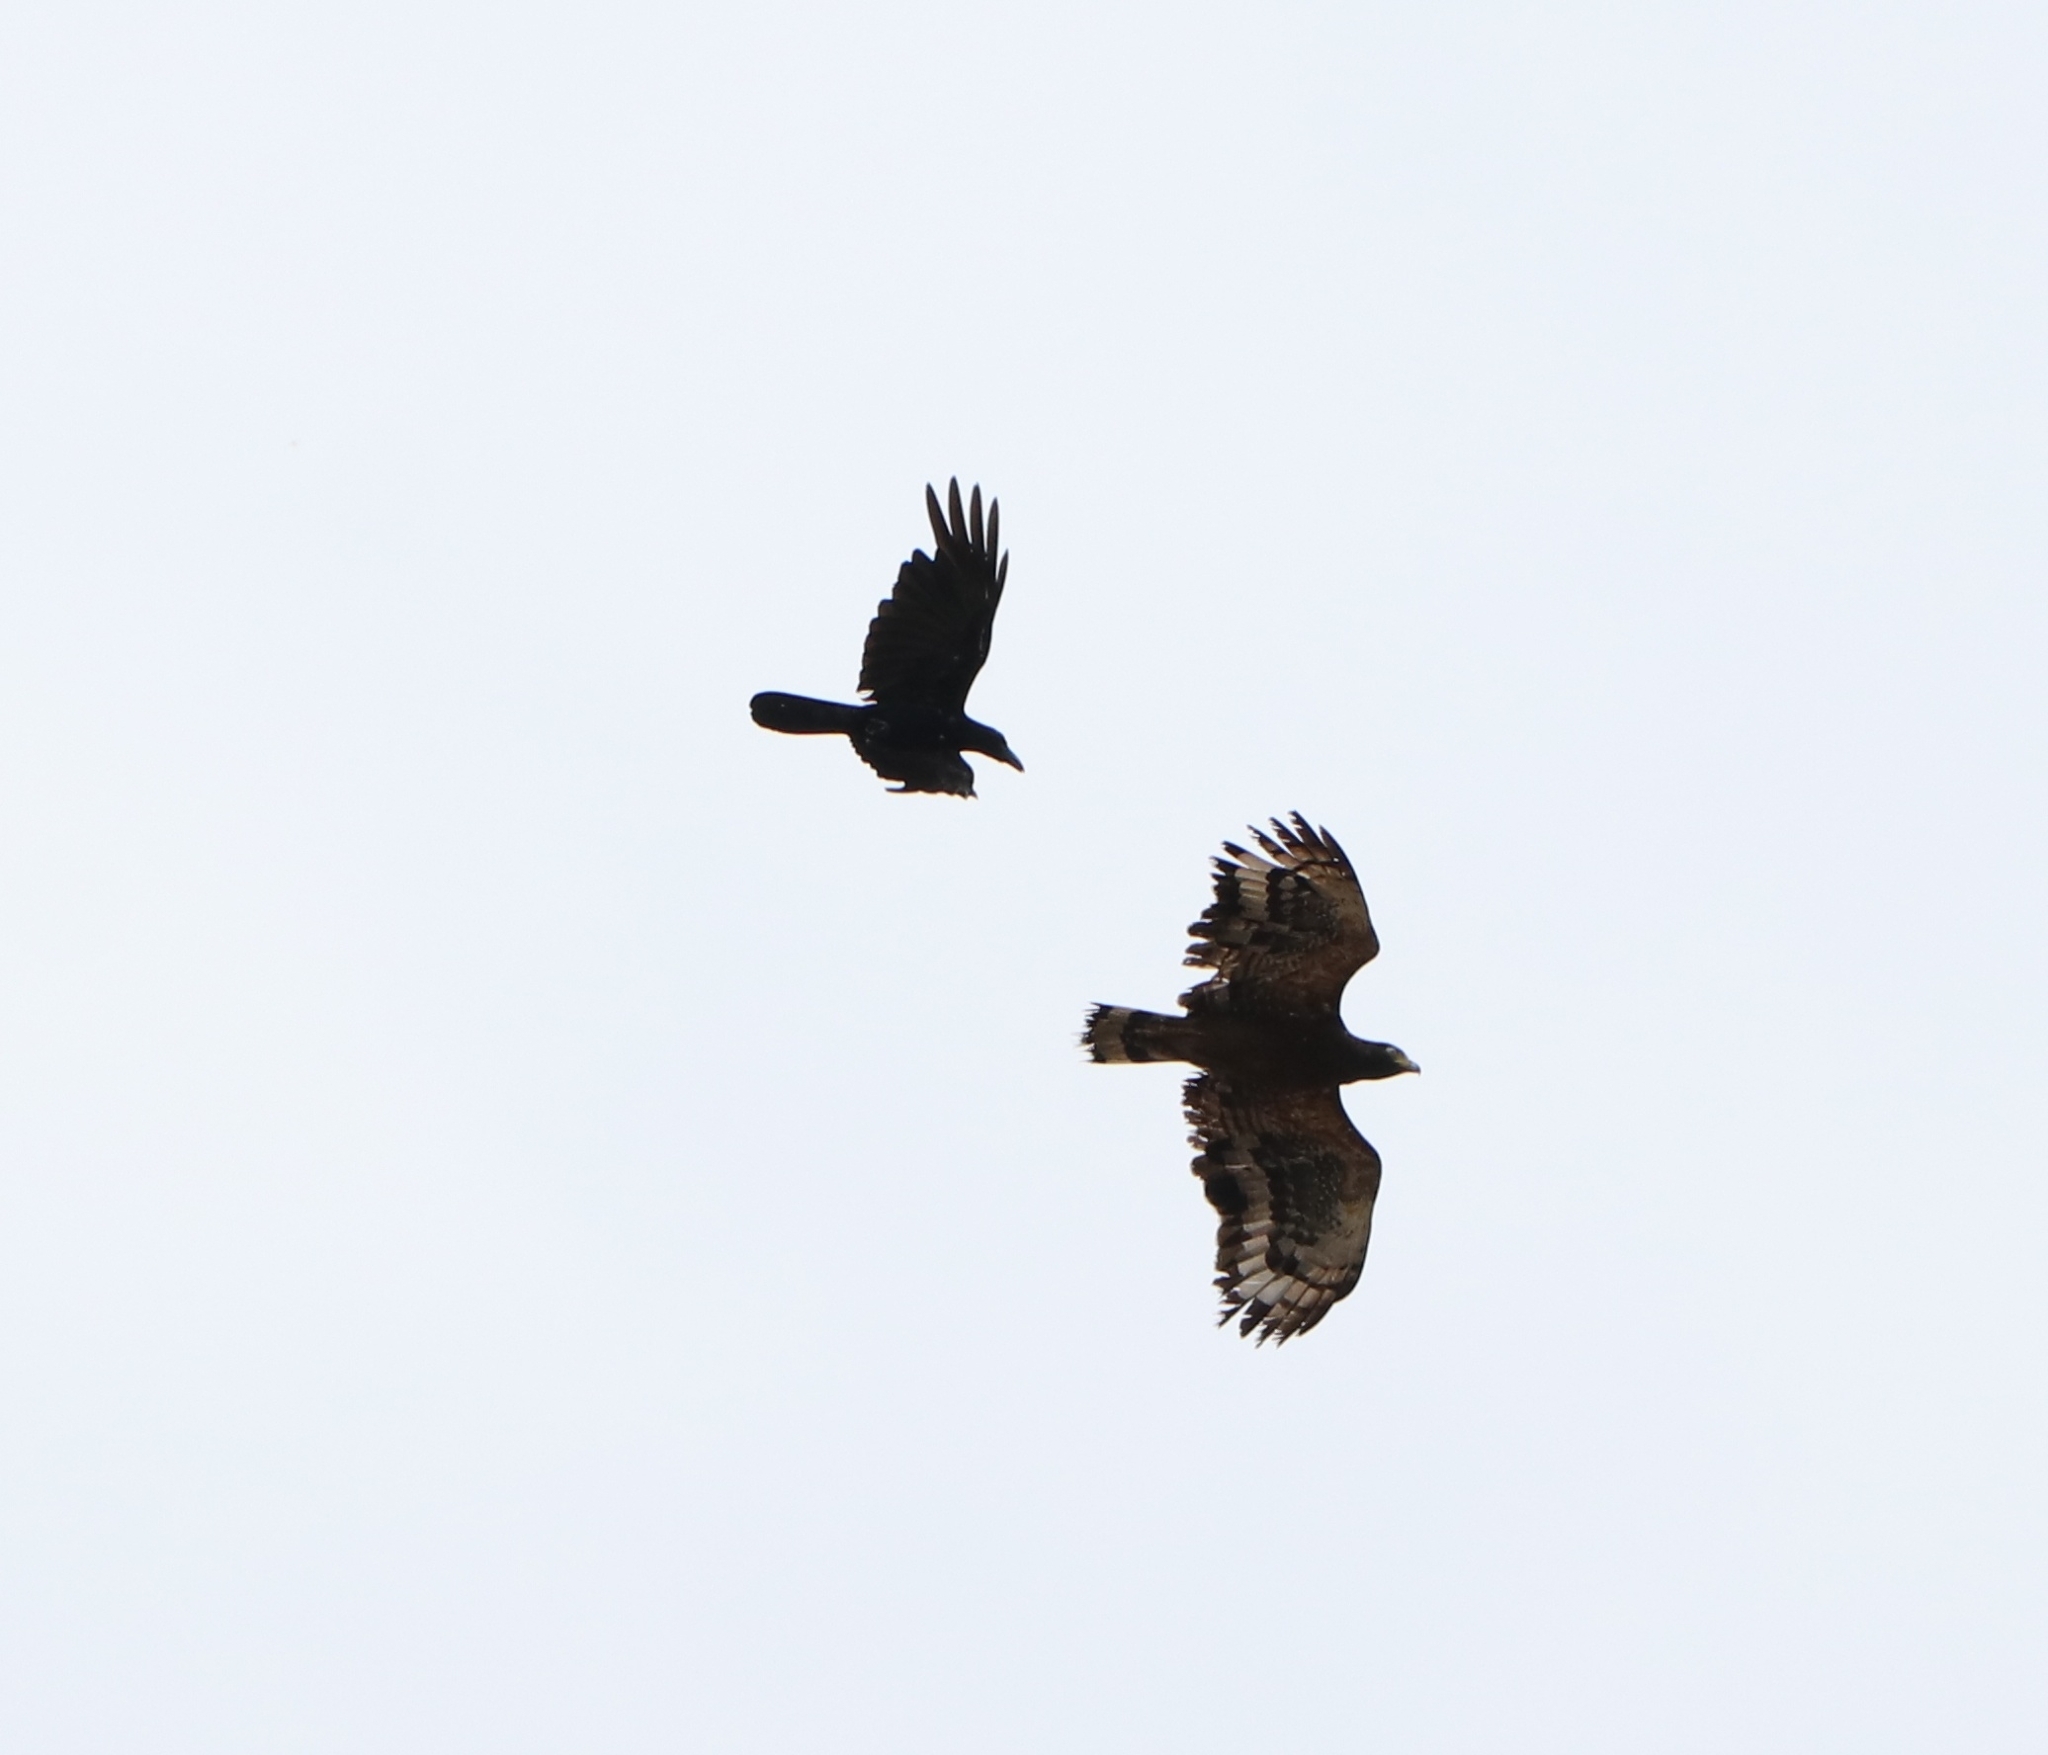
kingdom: Animalia
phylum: Chordata
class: Aves
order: Passeriformes
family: Corvidae
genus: Corvus
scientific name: Corvus macrorhynchos
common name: Large-billed crow
